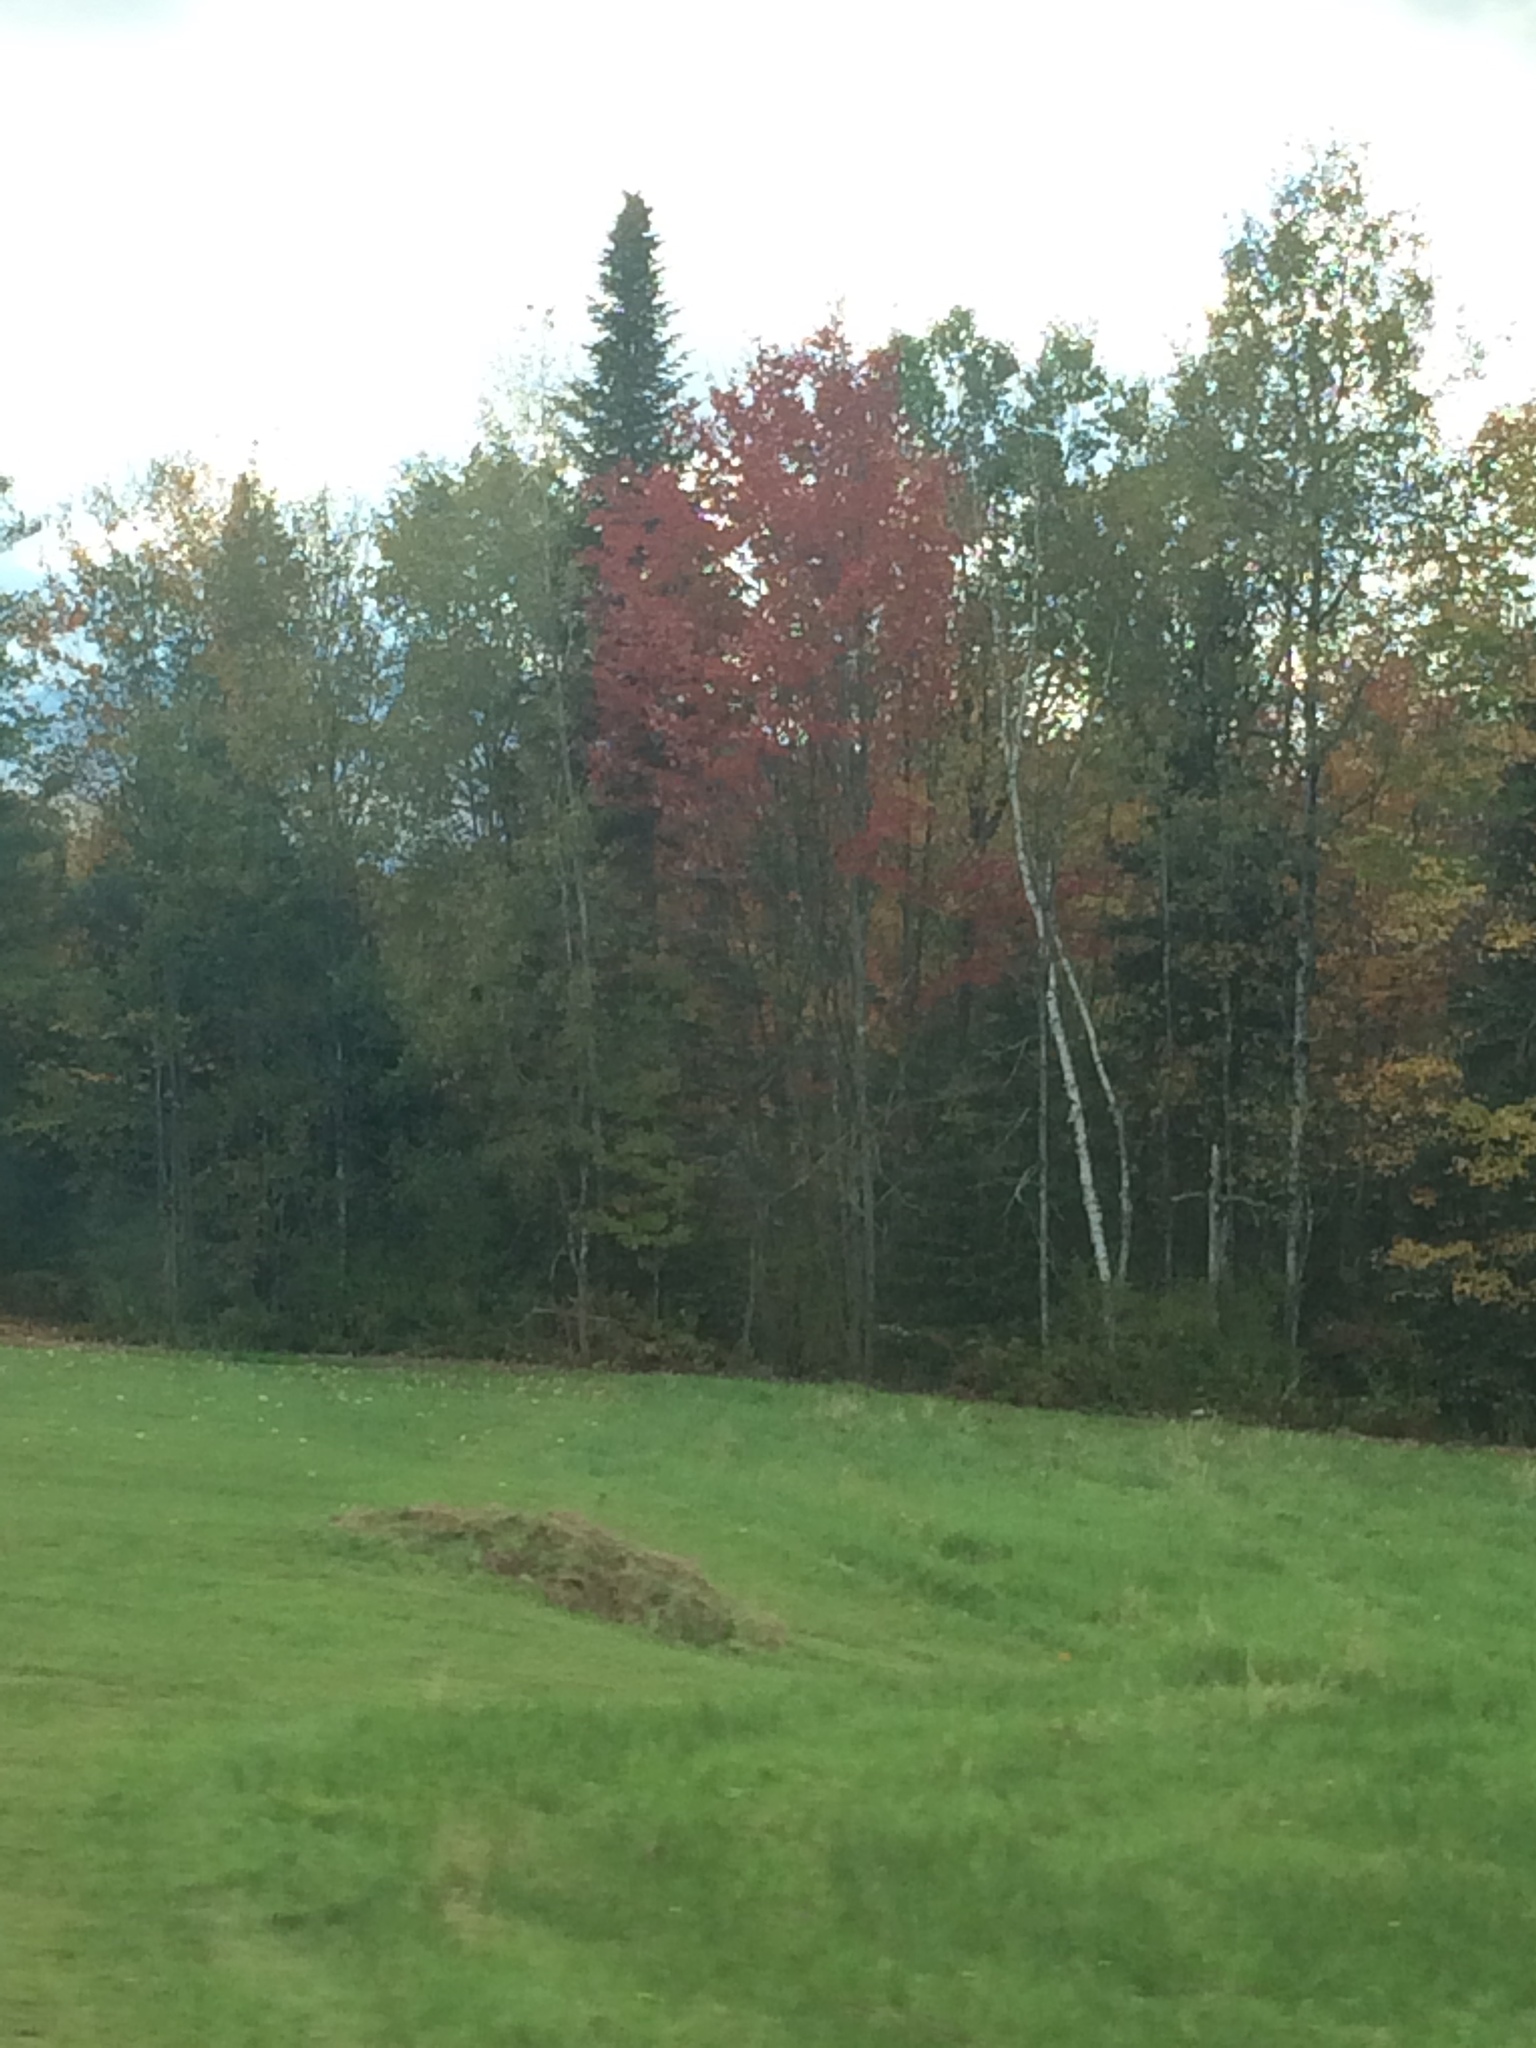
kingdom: Plantae
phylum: Tracheophyta
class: Magnoliopsida
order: Sapindales
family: Sapindaceae
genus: Acer
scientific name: Acer rubrum
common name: Red maple
